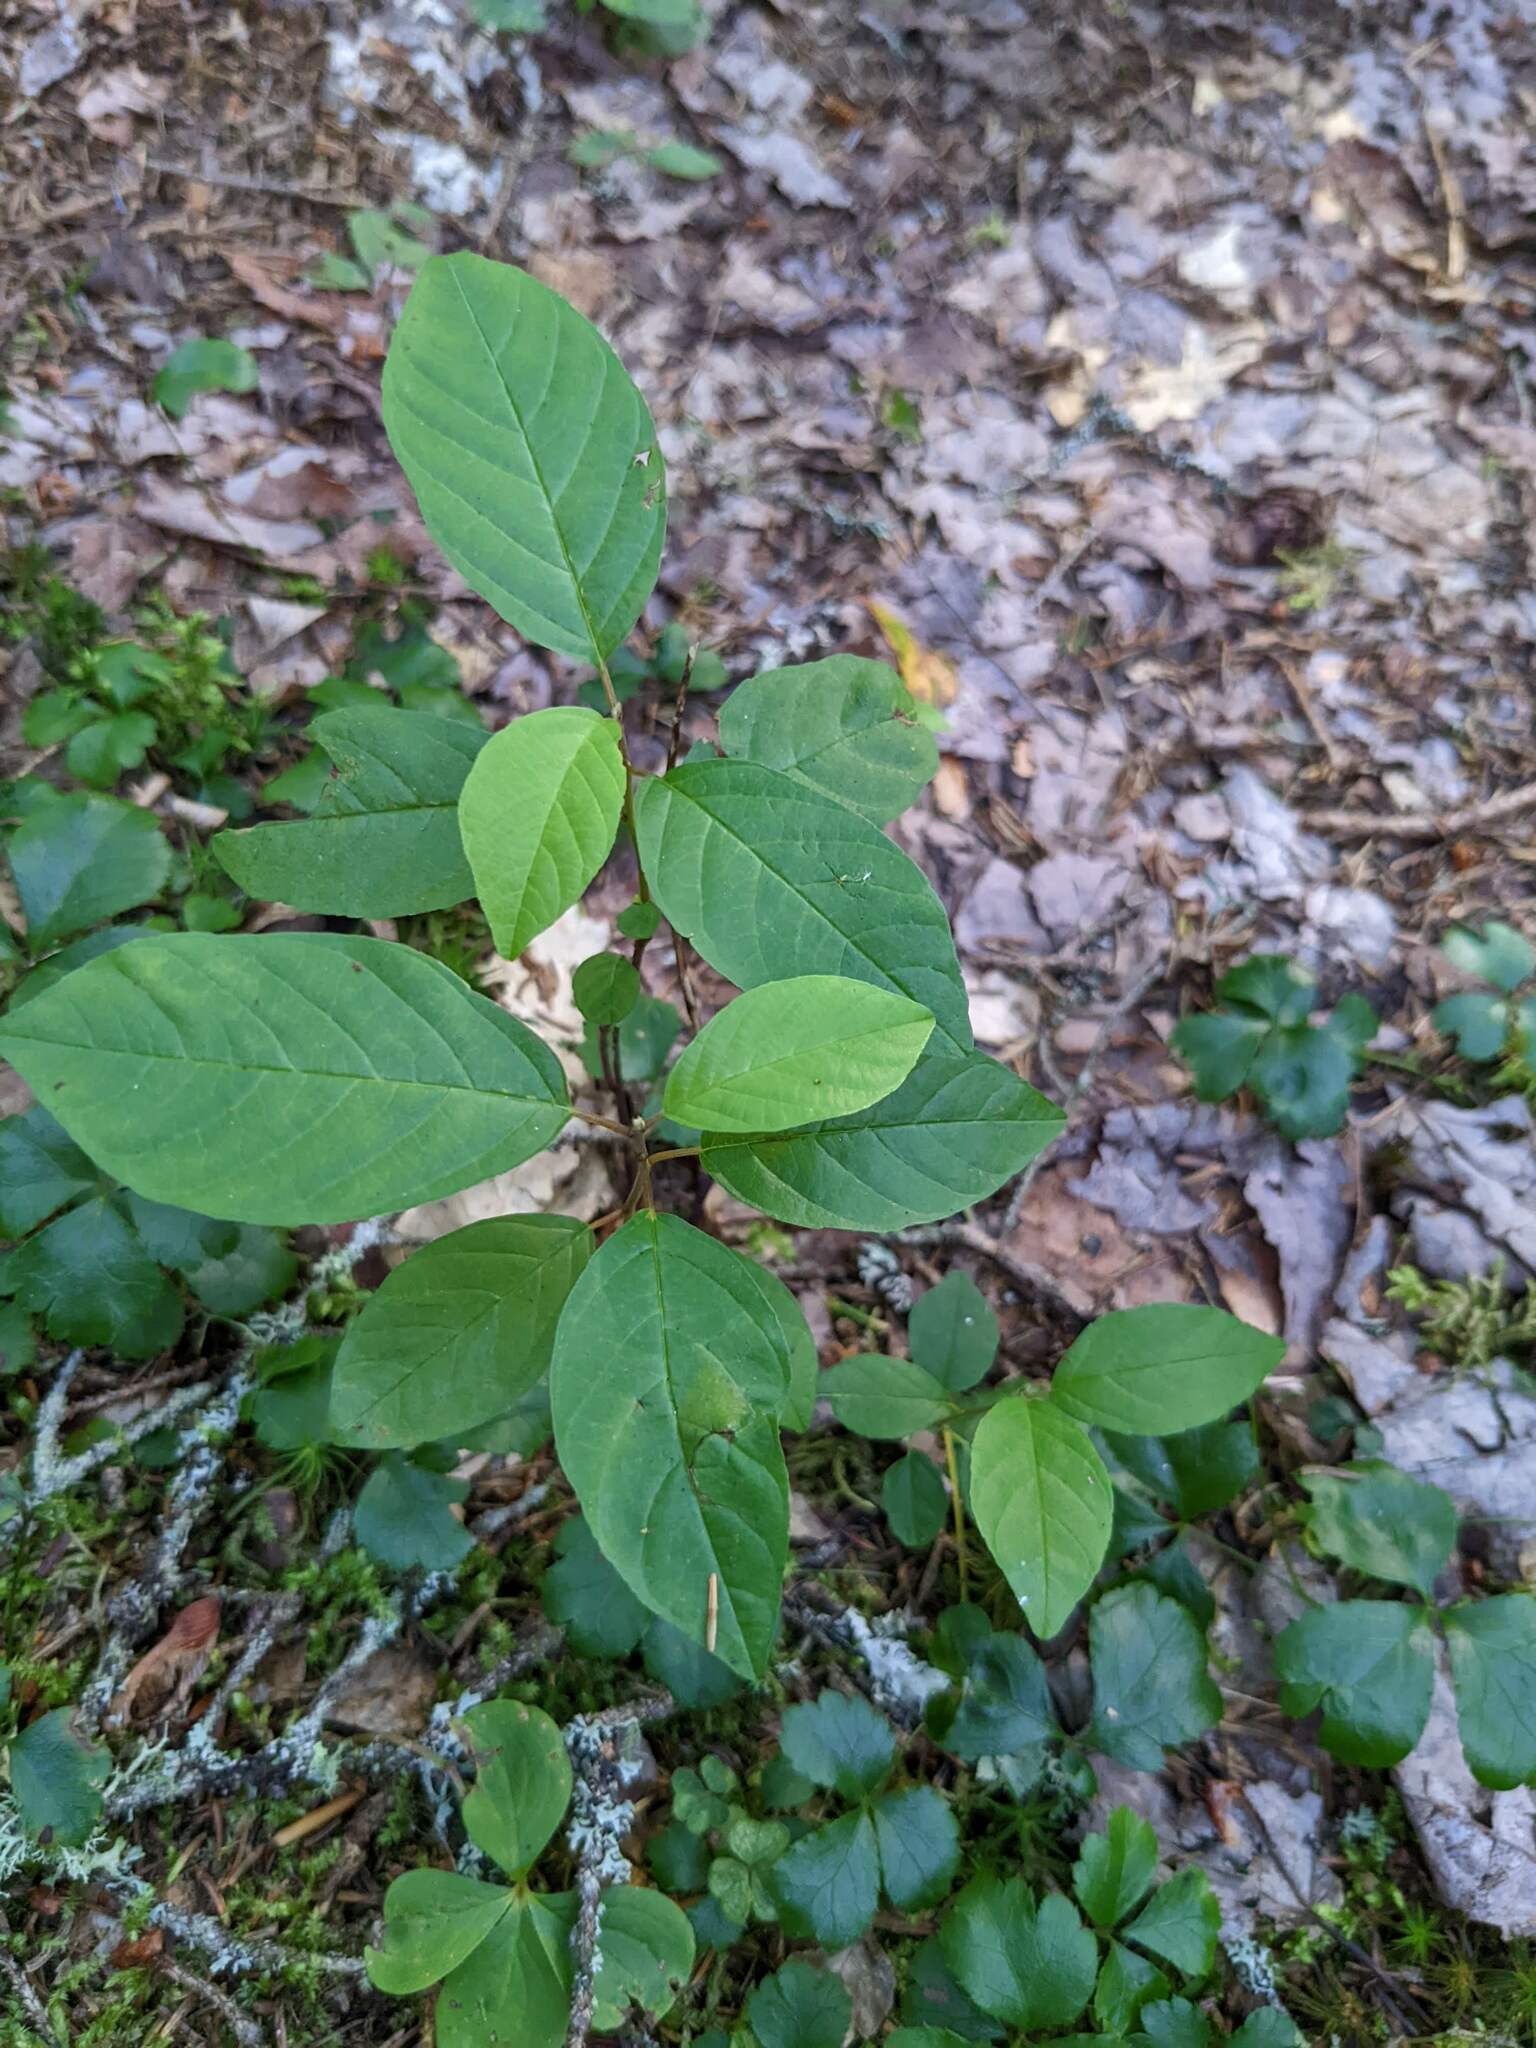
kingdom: Plantae
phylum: Tracheophyta
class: Magnoliopsida
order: Rosales
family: Rhamnaceae
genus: Frangula
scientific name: Frangula alnus
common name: Alder buckthorn
